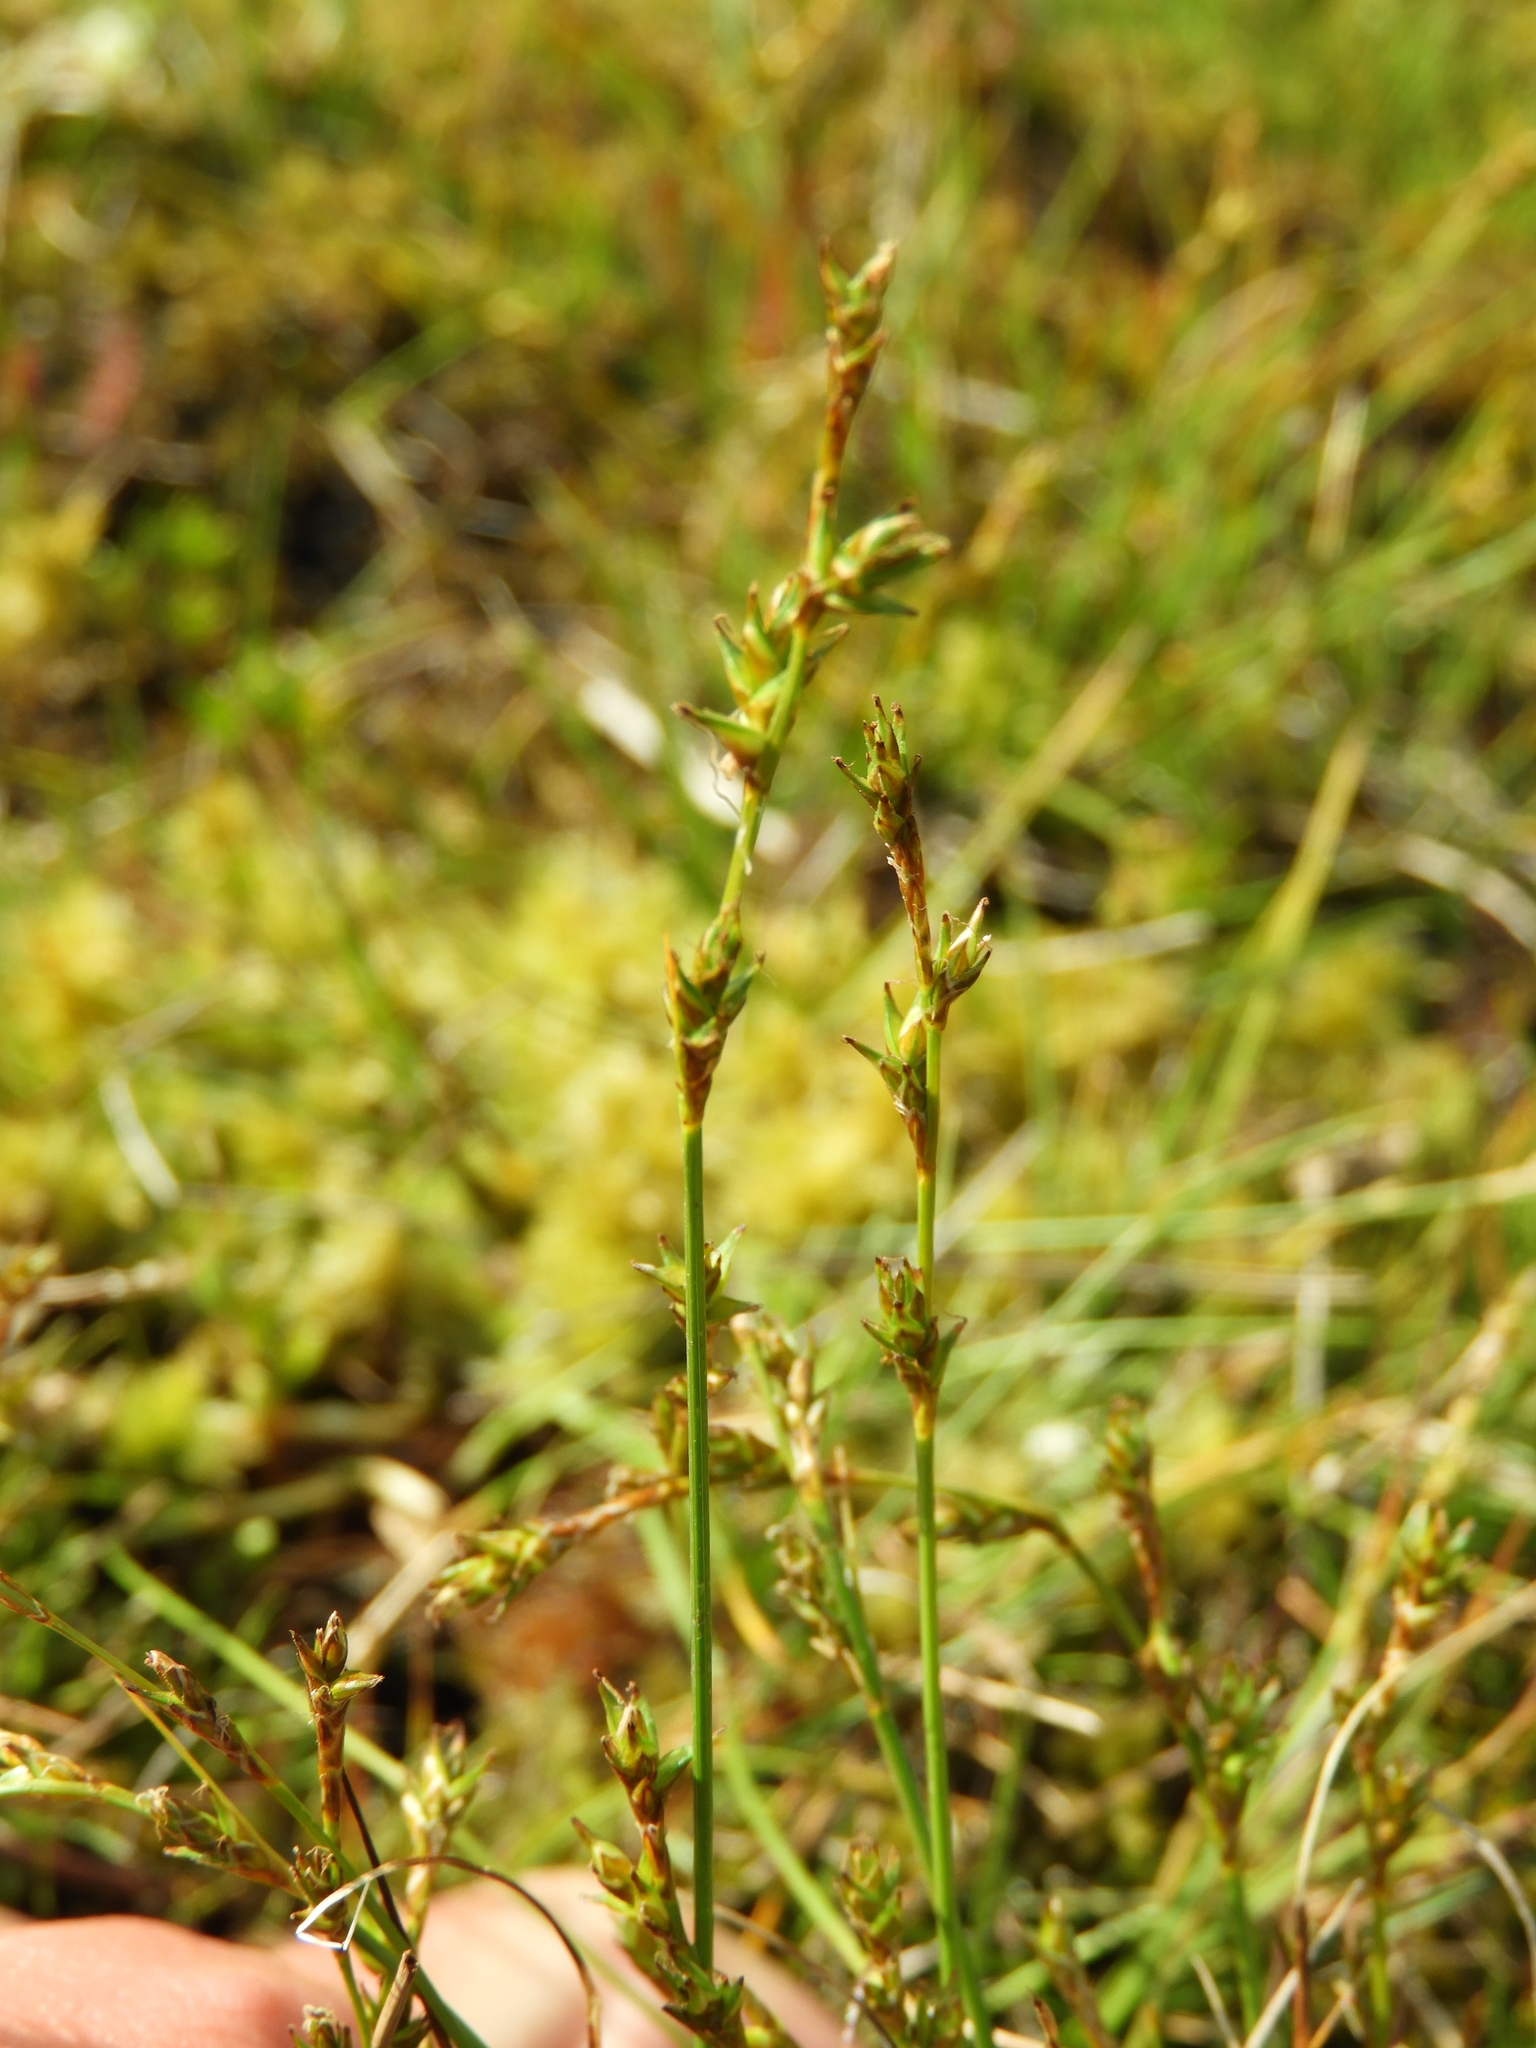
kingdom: Plantae
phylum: Tracheophyta
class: Liliopsida
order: Poales
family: Cyperaceae
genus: Carex
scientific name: Carex echinata
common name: Star sedge
